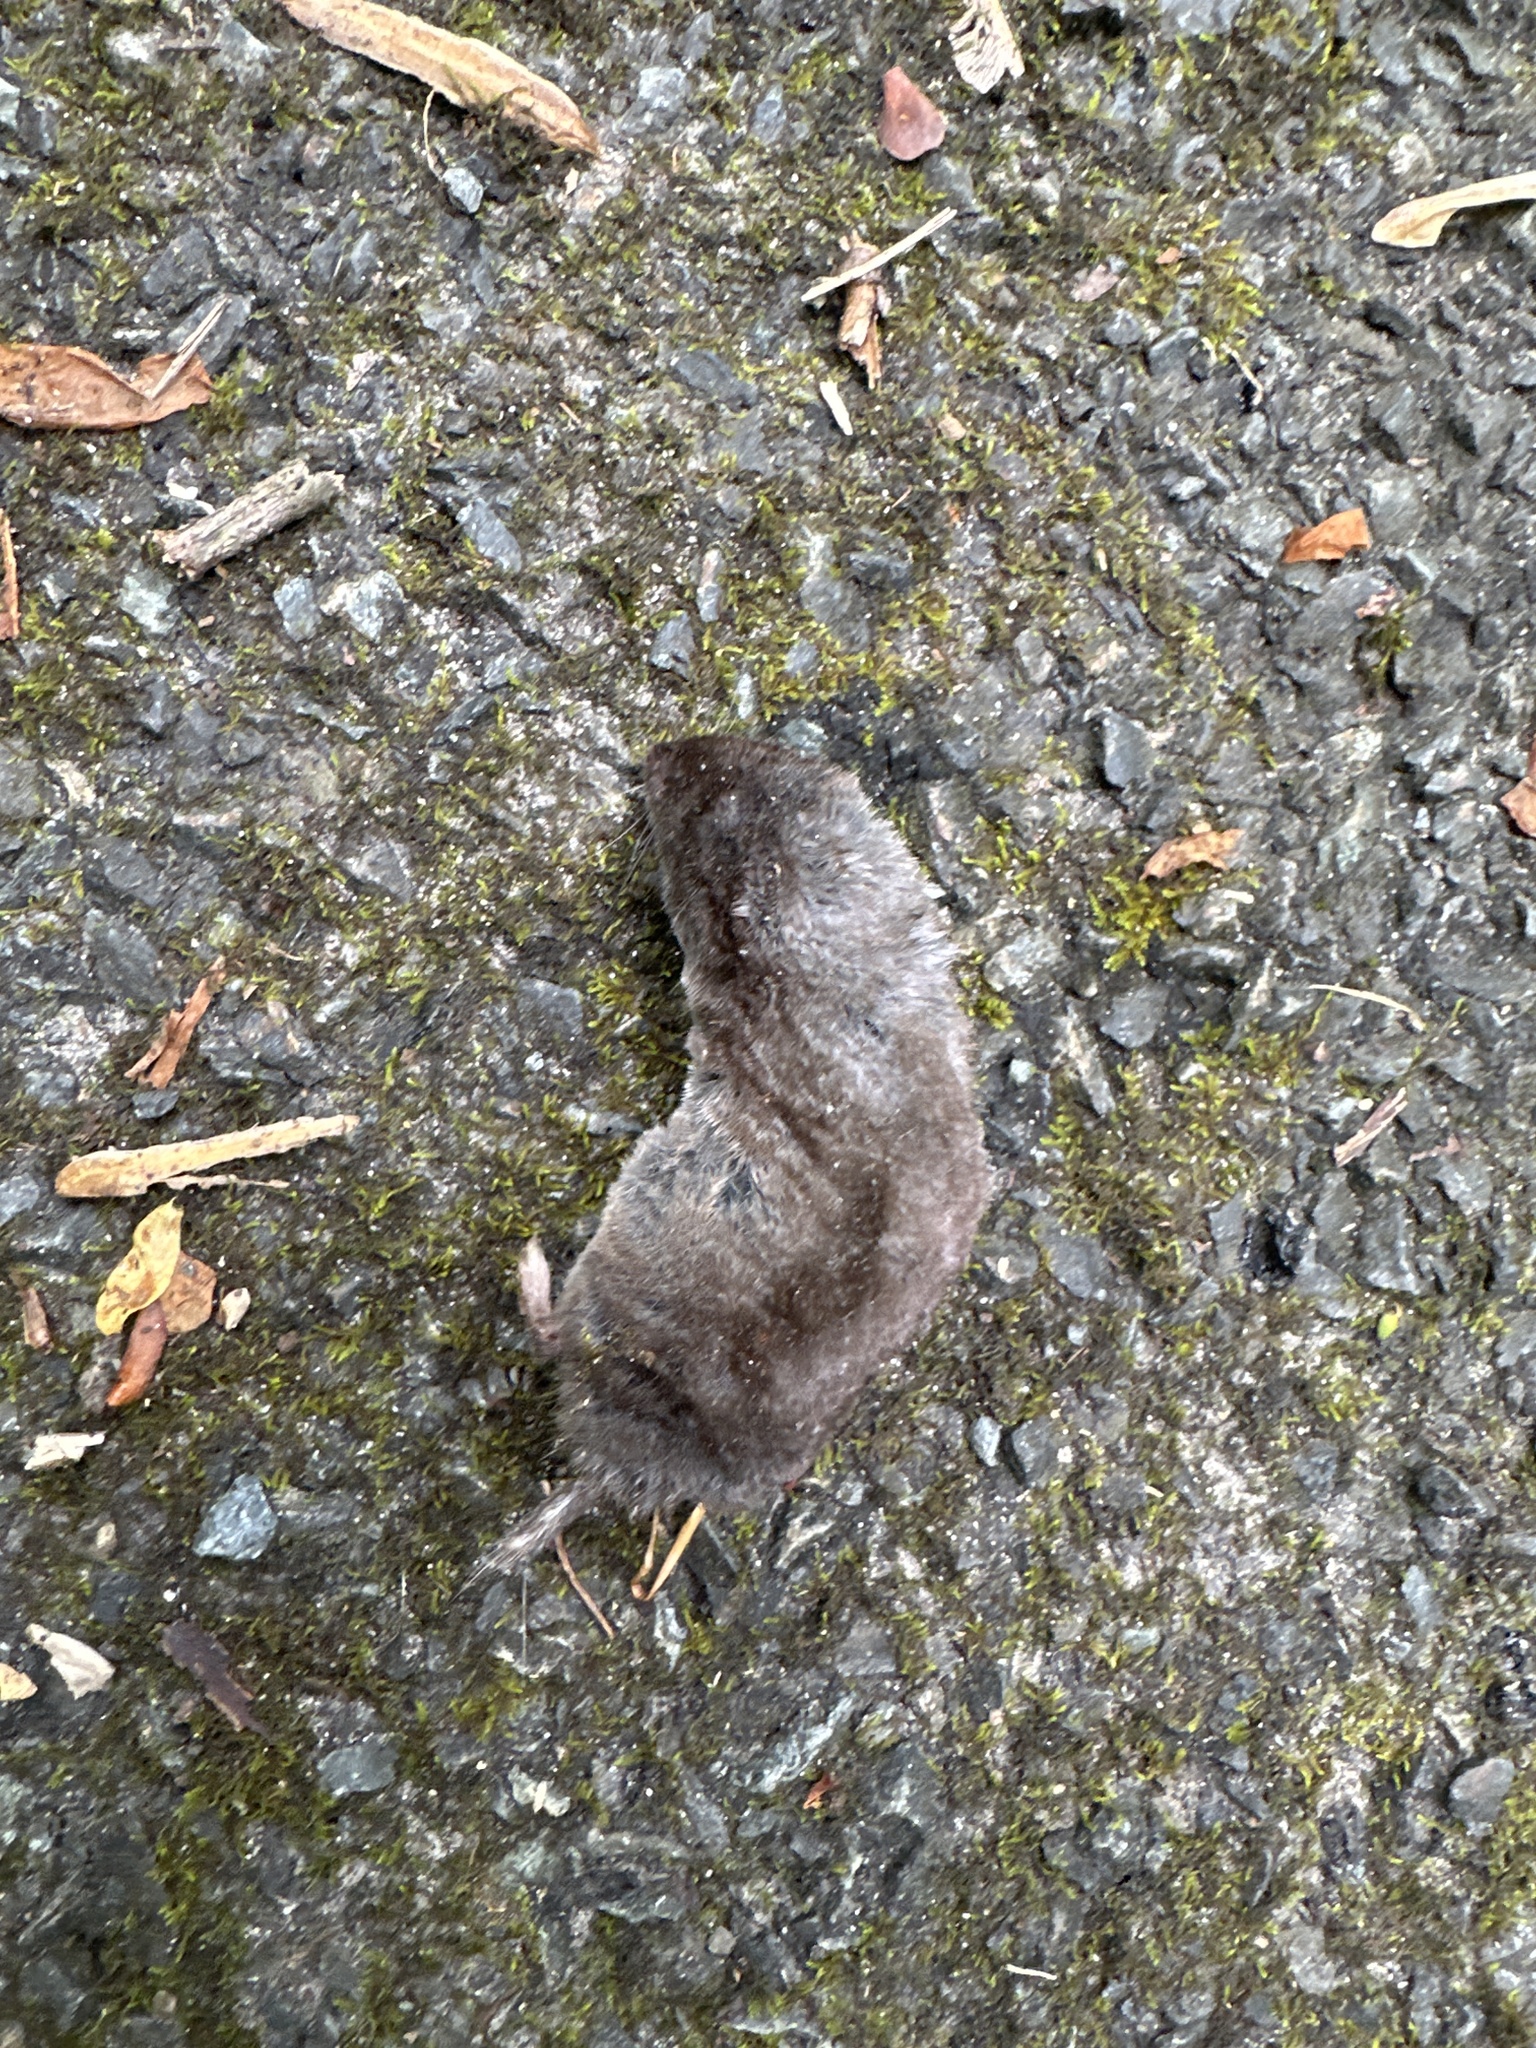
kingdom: Animalia
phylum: Chordata
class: Mammalia
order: Soricomorpha
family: Soricidae
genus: Blarina
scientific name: Blarina brevicauda
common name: Northern short-tailed shrew
